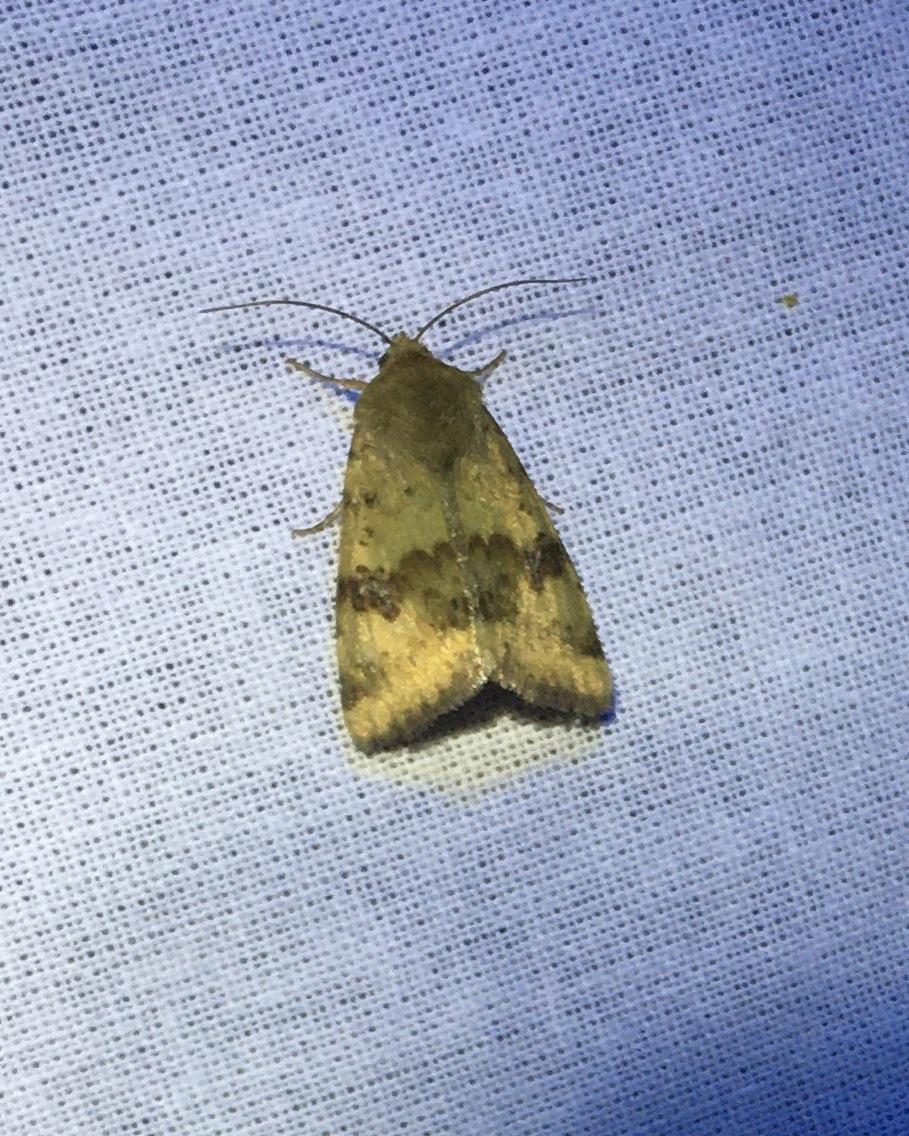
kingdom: Animalia
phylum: Arthropoda
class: Insecta
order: Lepidoptera
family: Noctuidae
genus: Heliothis
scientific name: Heliothis viriplaca
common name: Marbled clover
